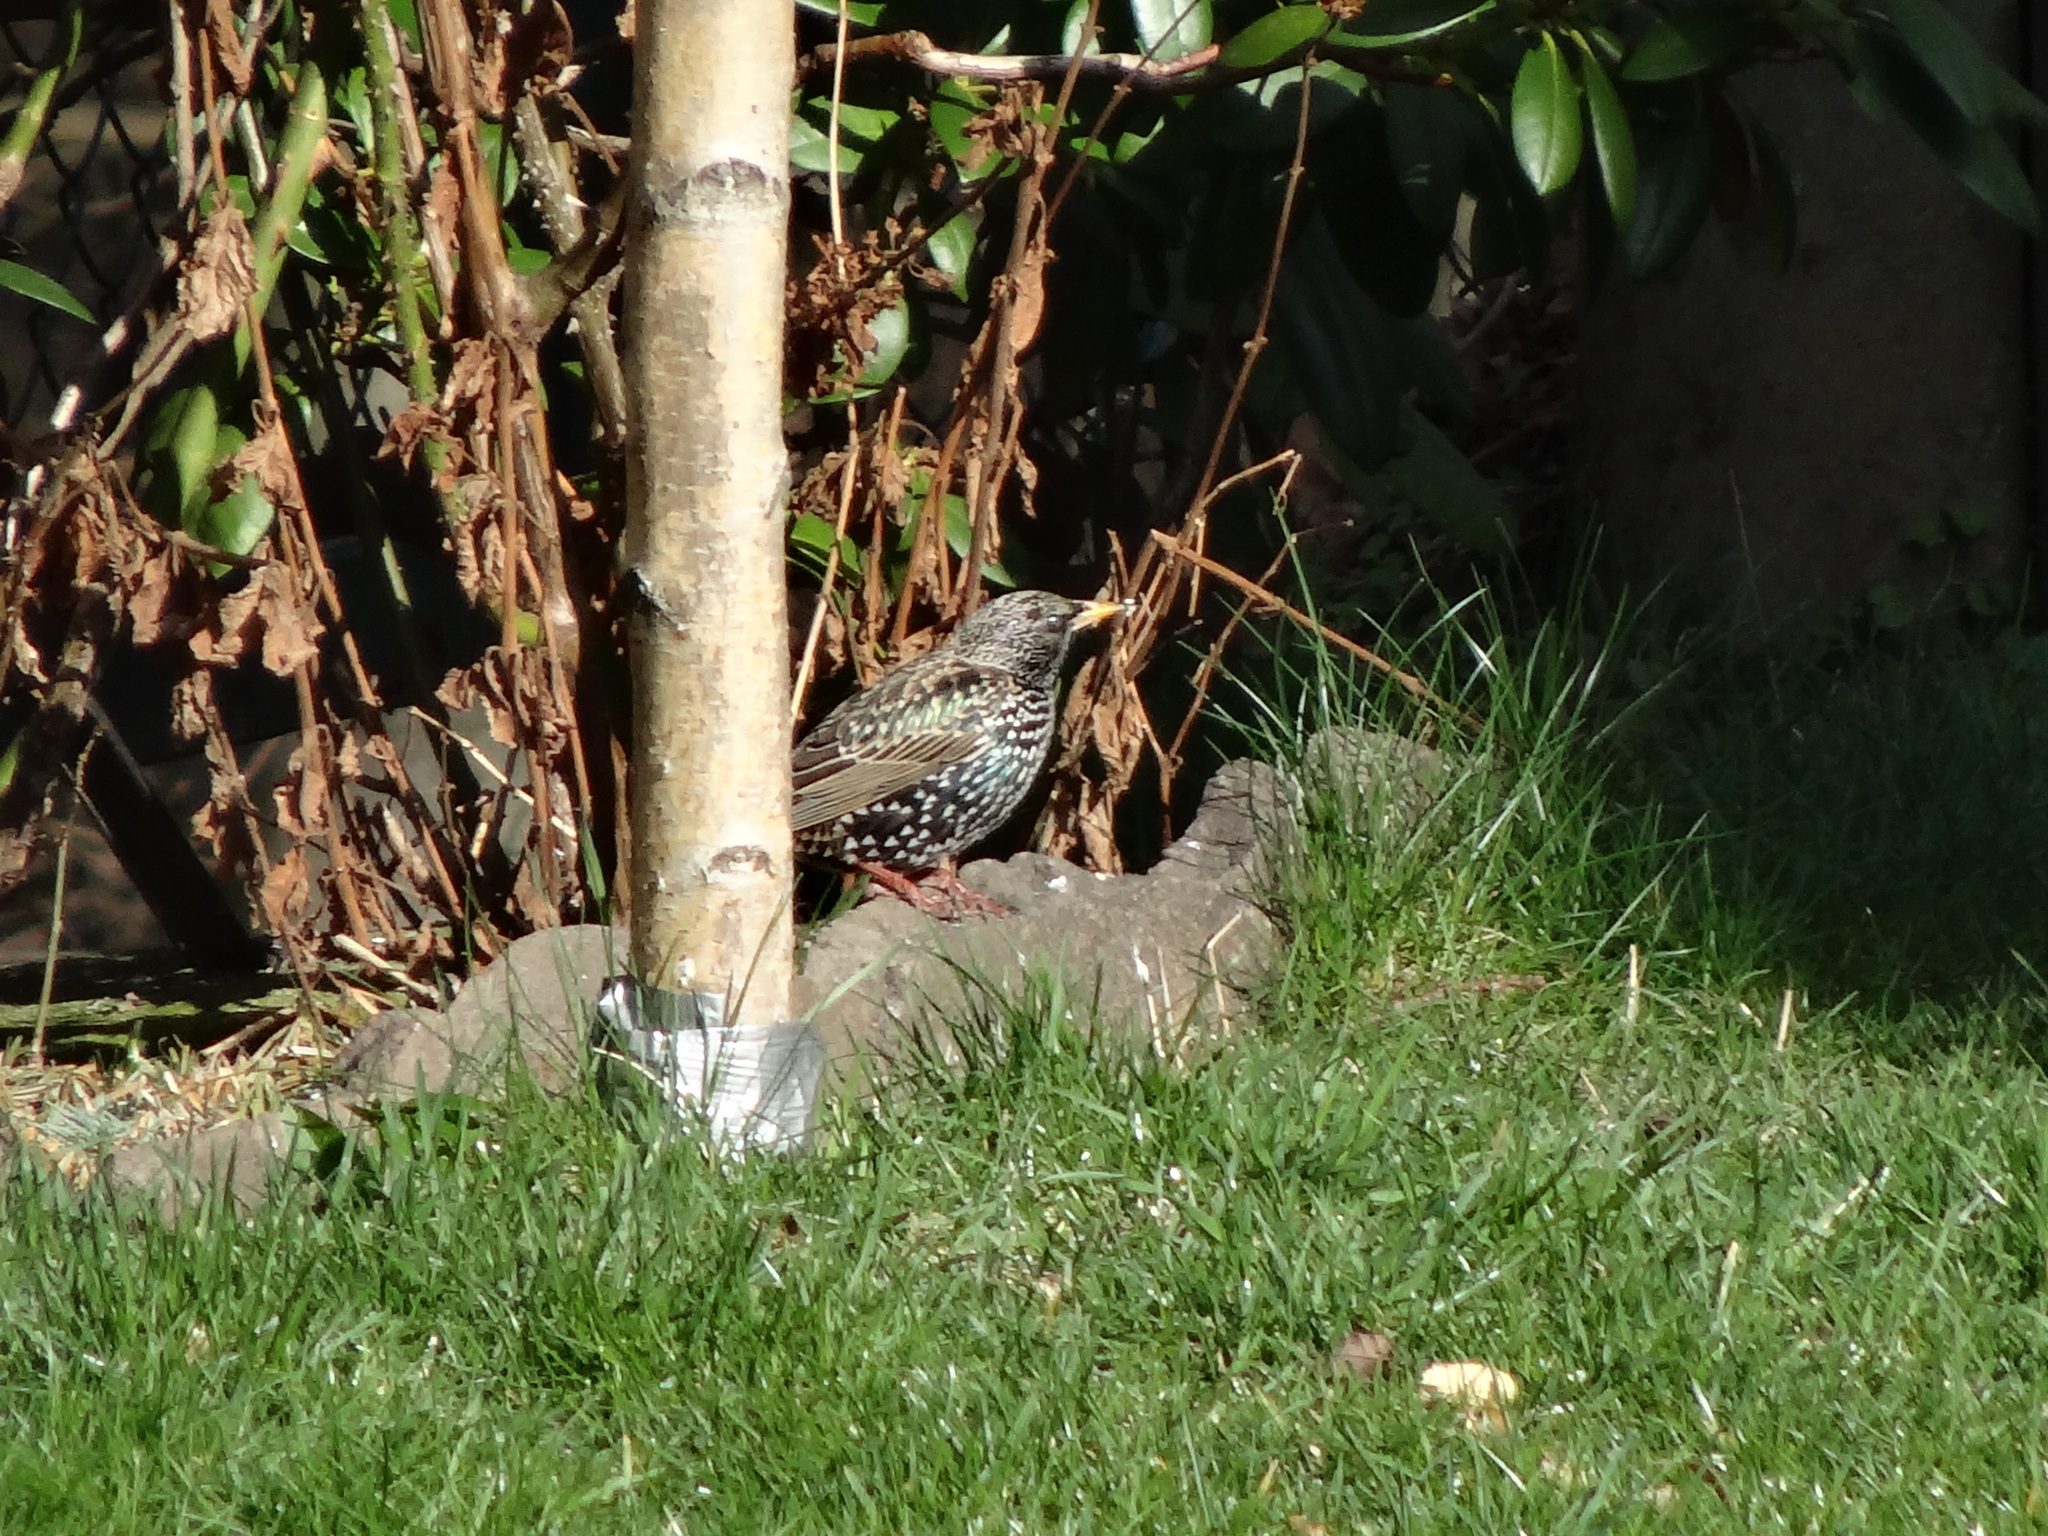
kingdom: Animalia
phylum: Chordata
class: Aves
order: Passeriformes
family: Sturnidae
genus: Sturnus
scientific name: Sturnus vulgaris
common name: Common starling
